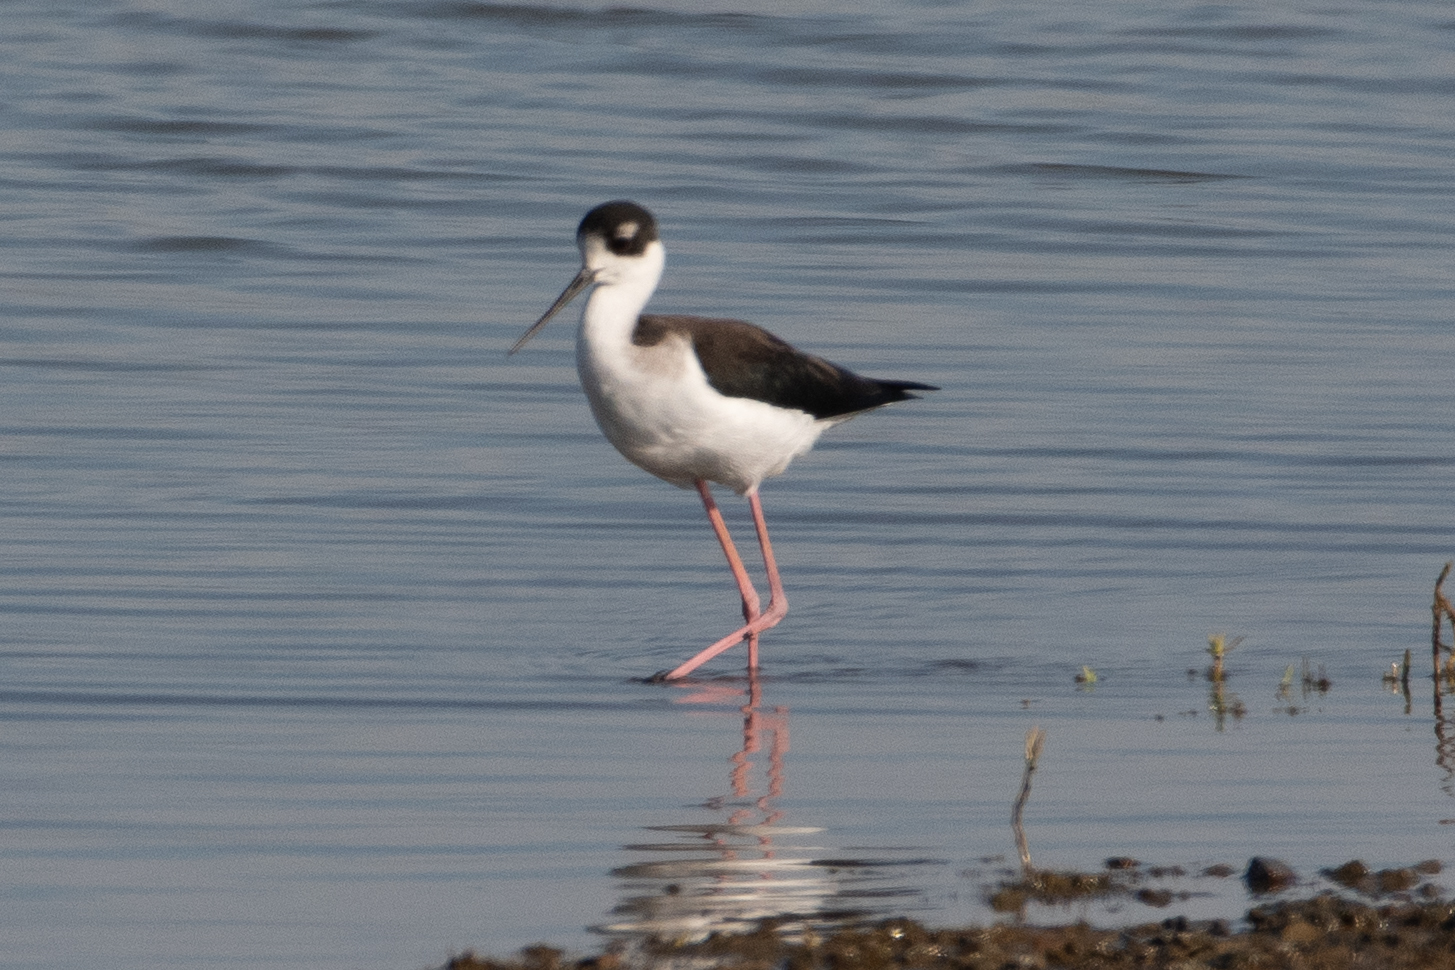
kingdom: Animalia
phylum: Chordata
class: Aves
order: Charadriiformes
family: Recurvirostridae
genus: Himantopus
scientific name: Himantopus mexicanus
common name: Black-necked stilt
